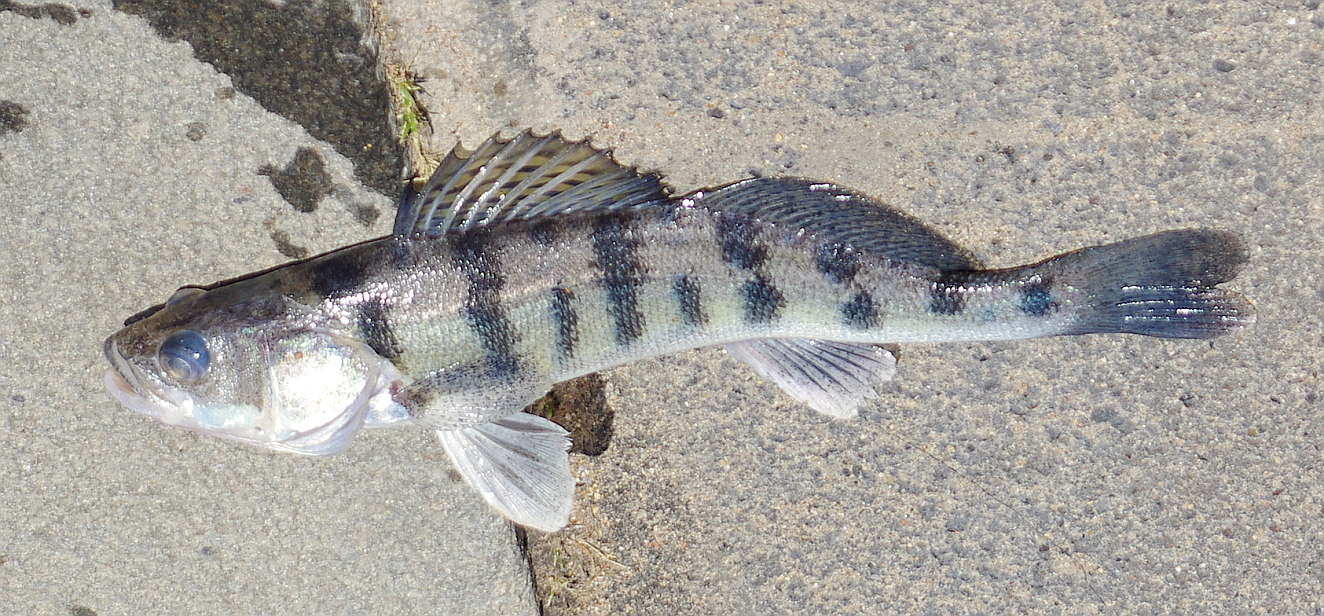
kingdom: Animalia
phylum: Chordata
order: Perciformes
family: Percidae
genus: Sander
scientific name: Sander volgensis
